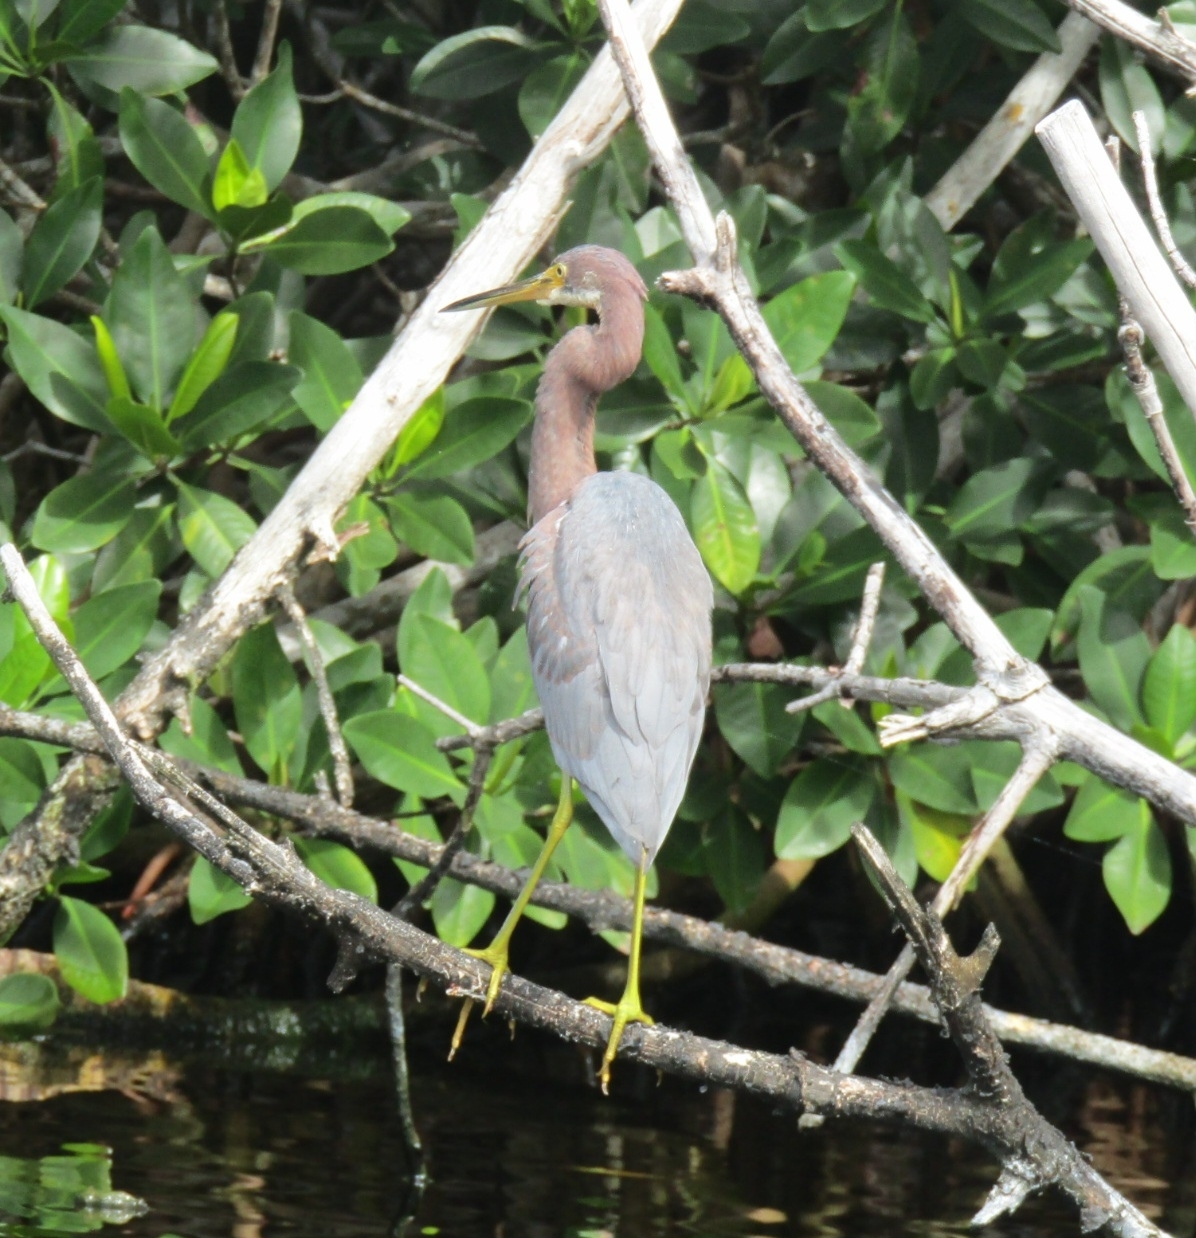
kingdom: Animalia
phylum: Chordata
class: Aves
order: Pelecaniformes
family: Ardeidae
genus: Egretta
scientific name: Egretta tricolor
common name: Tricolored heron
